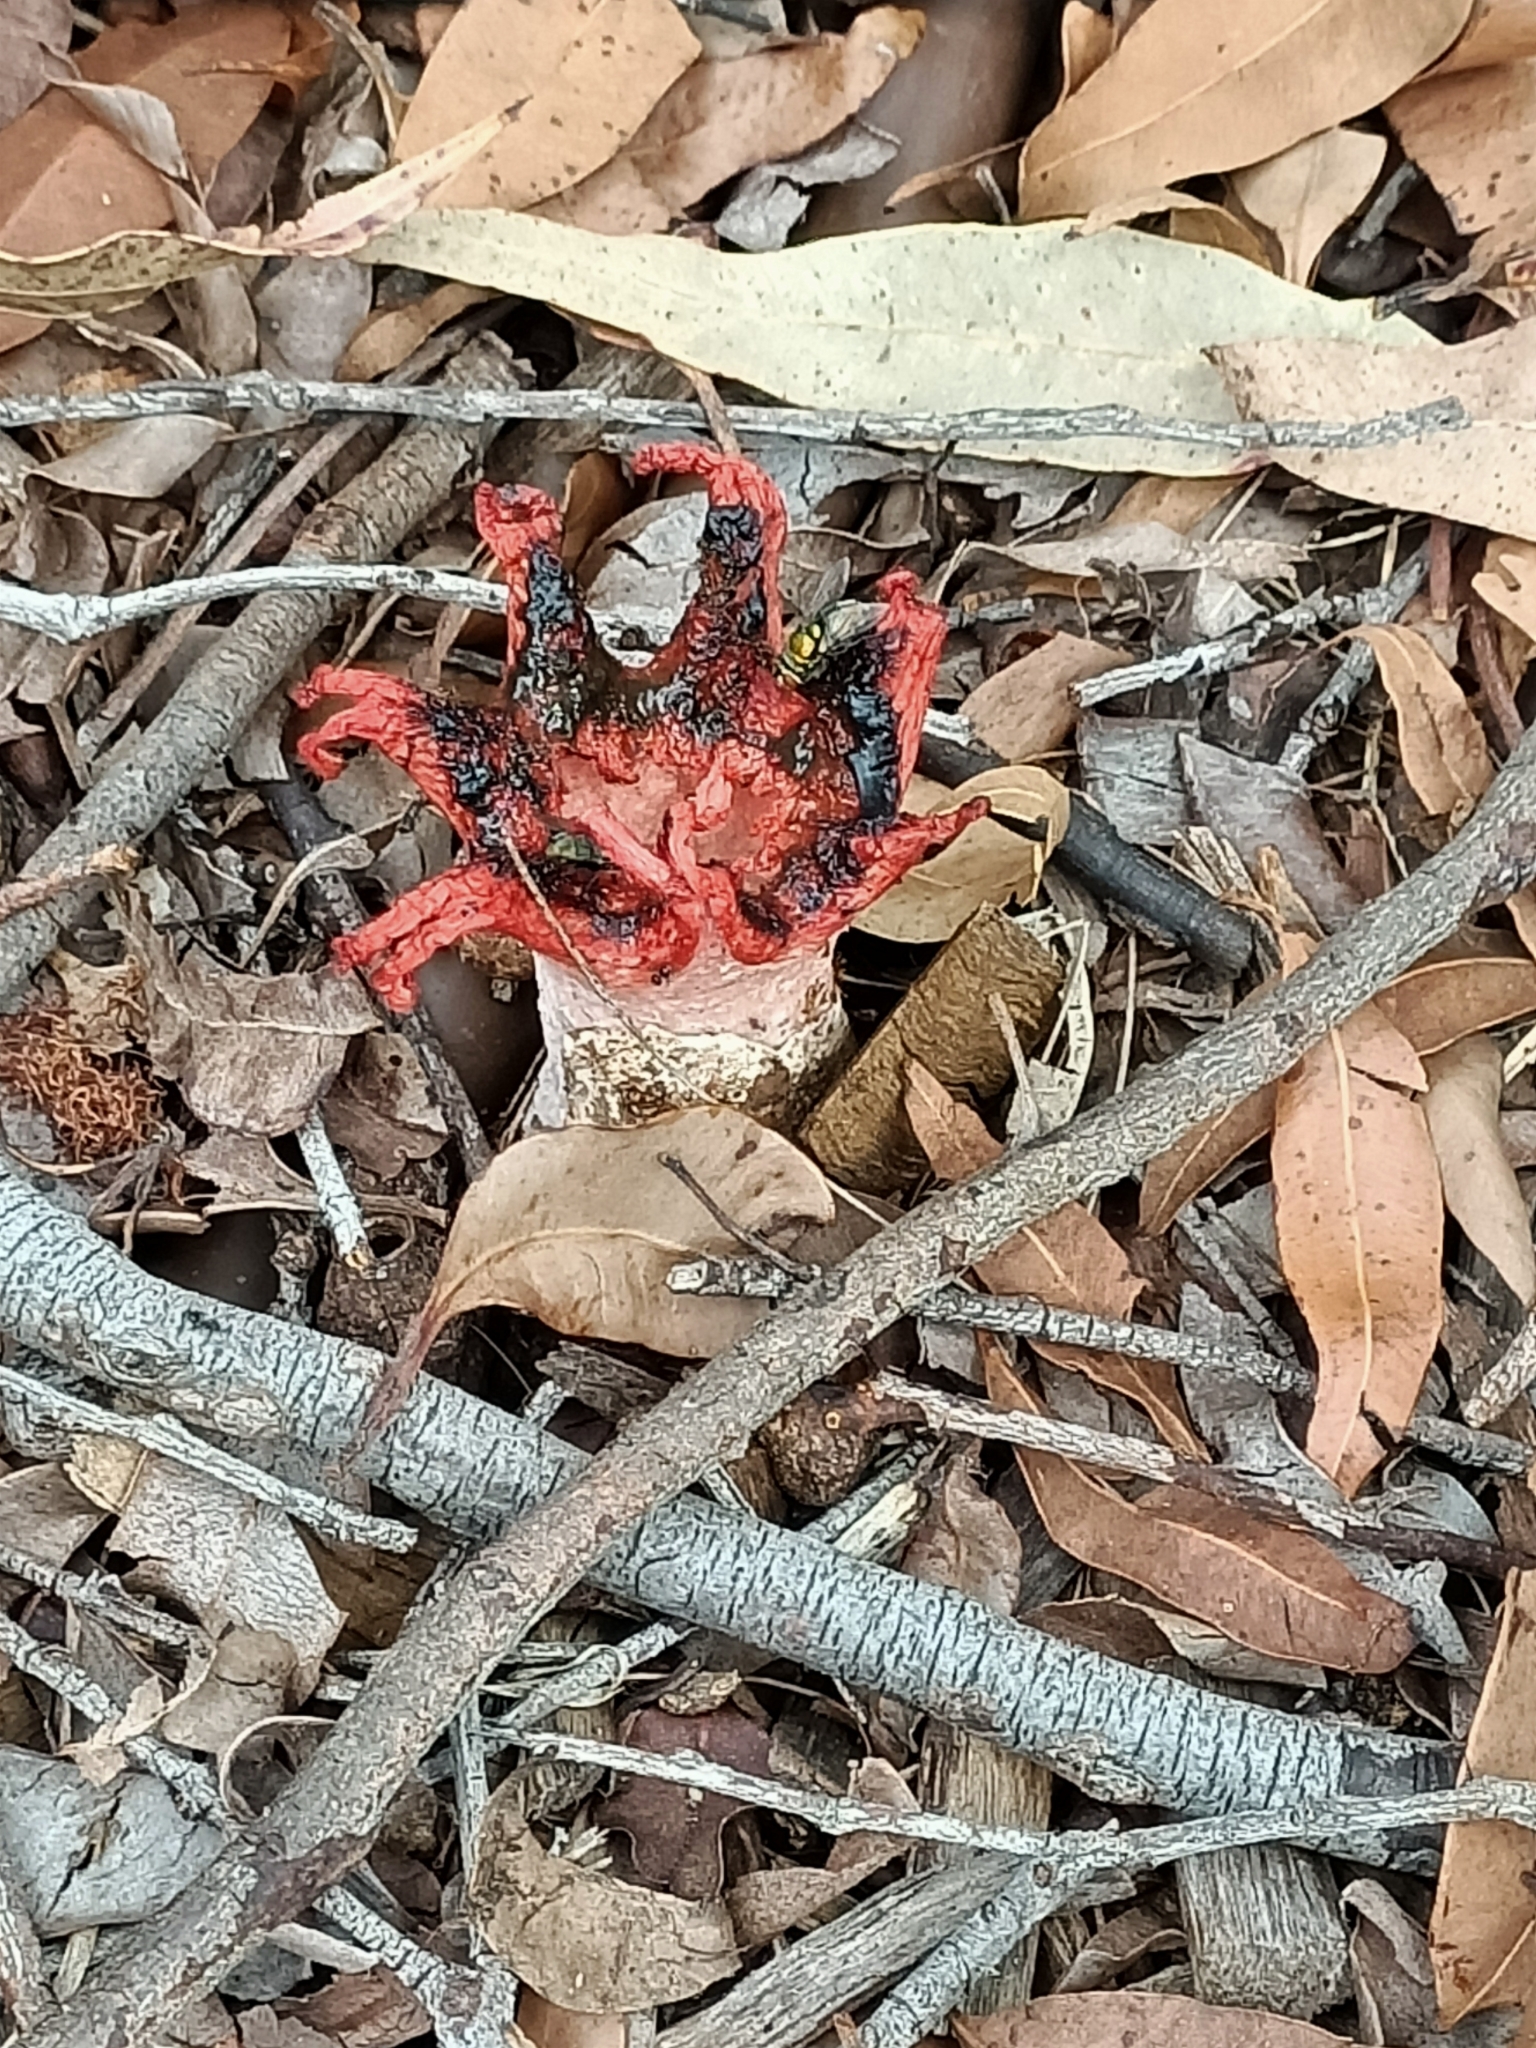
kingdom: Fungi
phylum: Basidiomycota
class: Agaricomycetes
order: Phallales
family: Phallaceae
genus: Aseroe
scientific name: Aseroe rubra
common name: Starfish fungus
